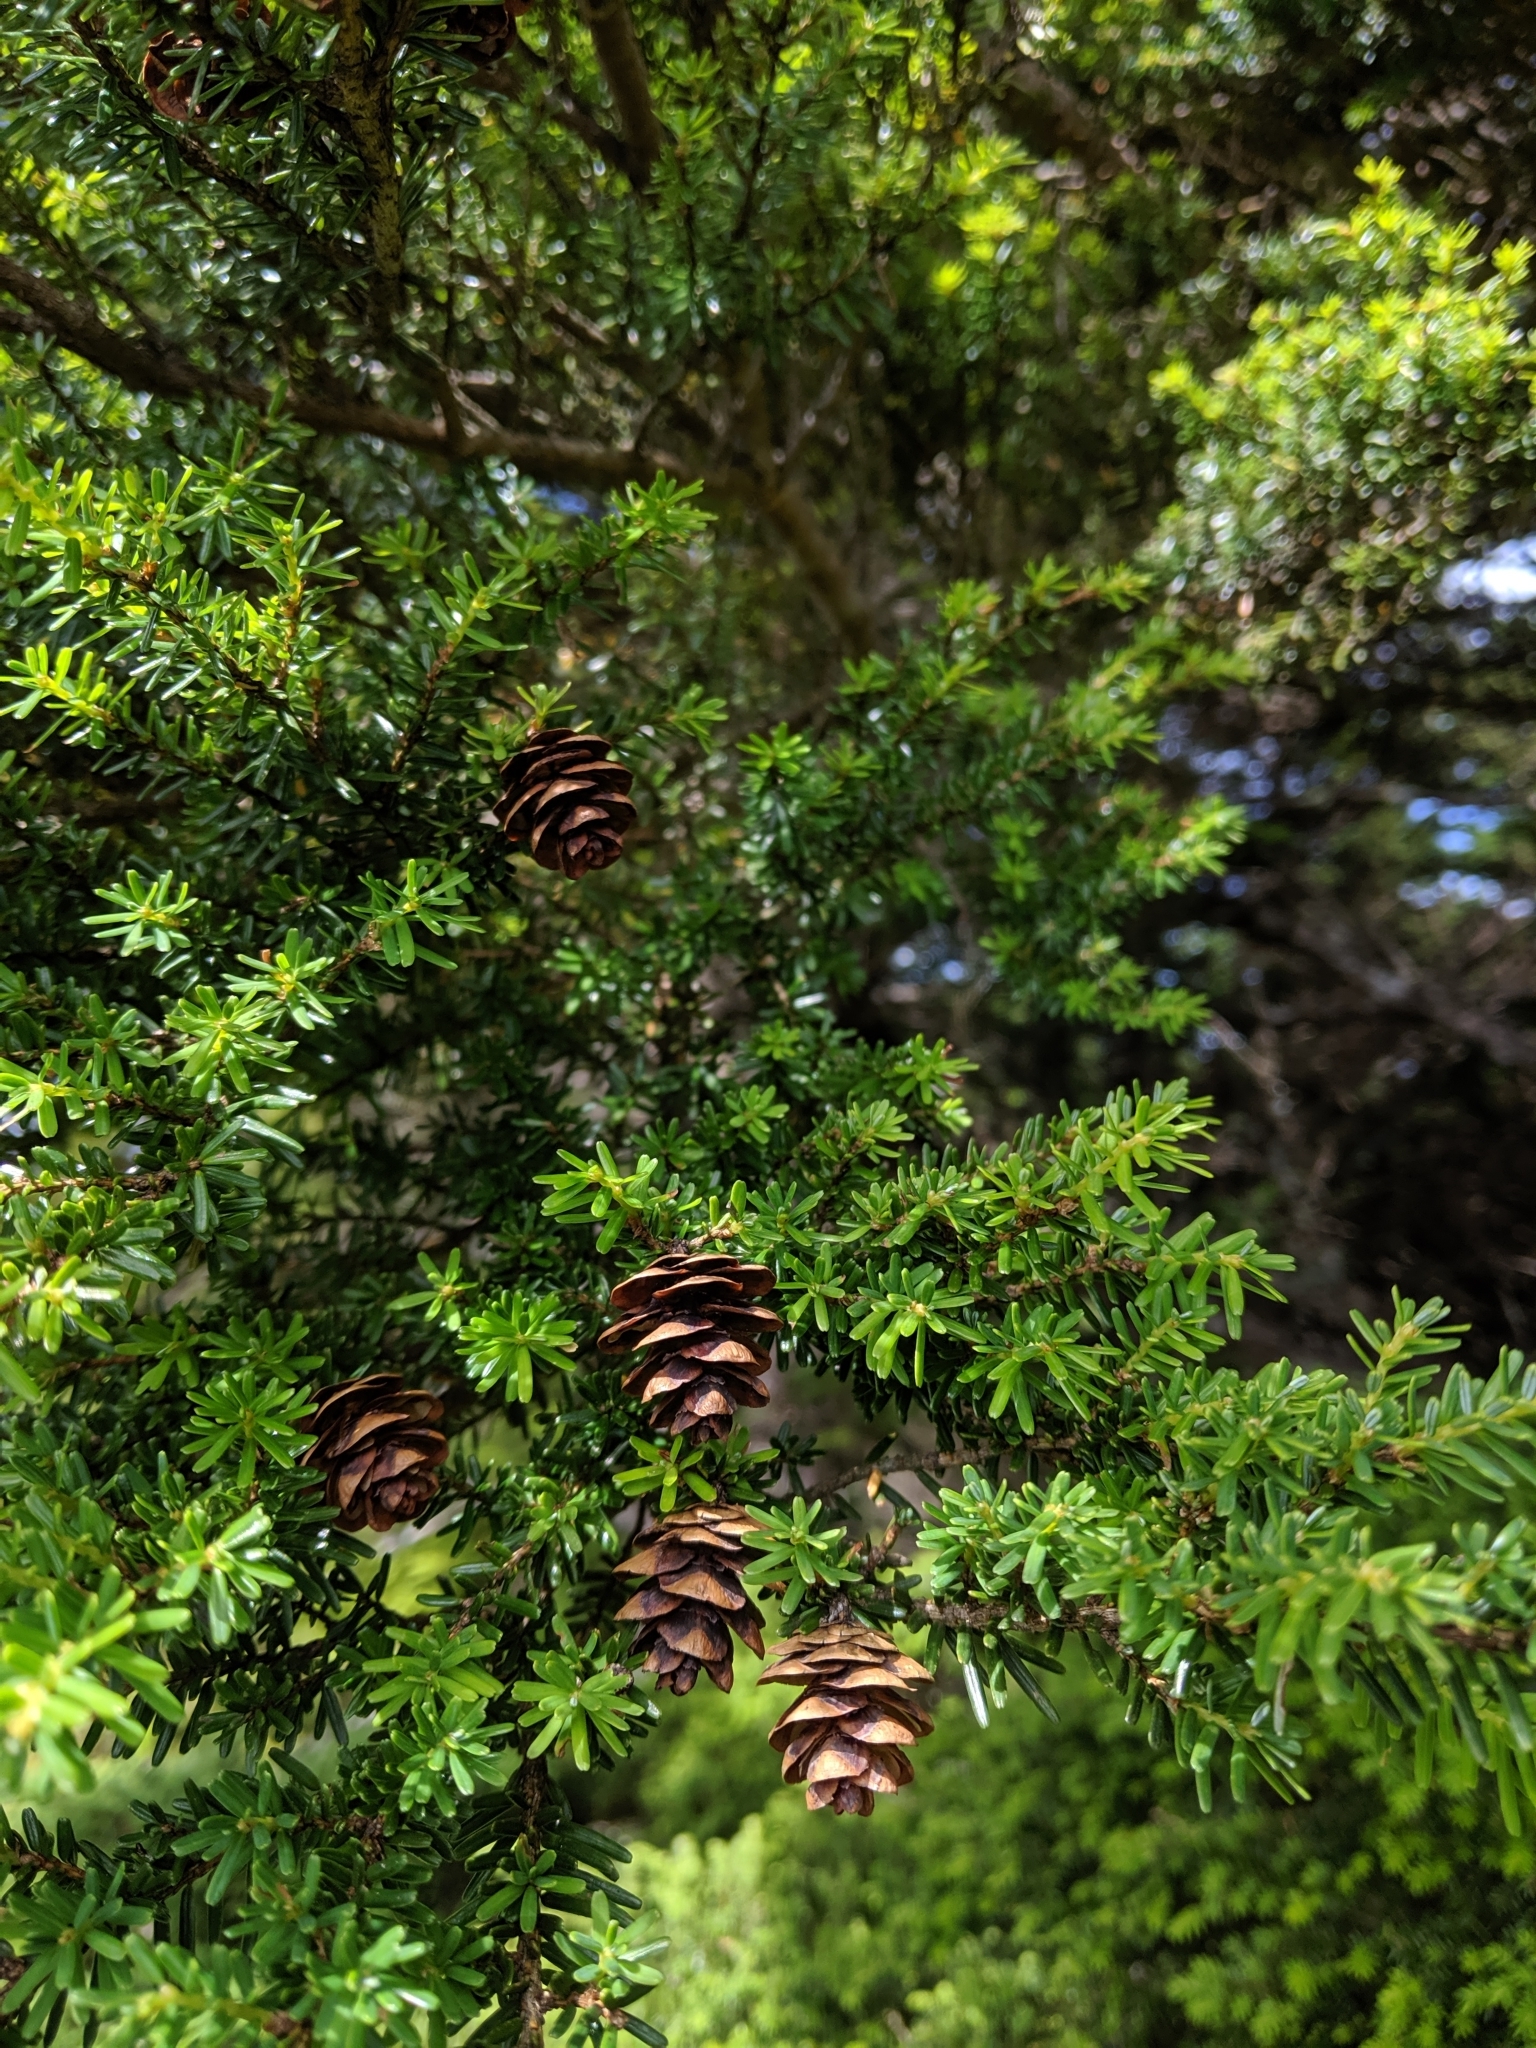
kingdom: Plantae
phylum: Tracheophyta
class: Pinopsida
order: Pinales
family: Pinaceae
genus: Tsuga
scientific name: Tsuga chinensis
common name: Chinese hemlock
